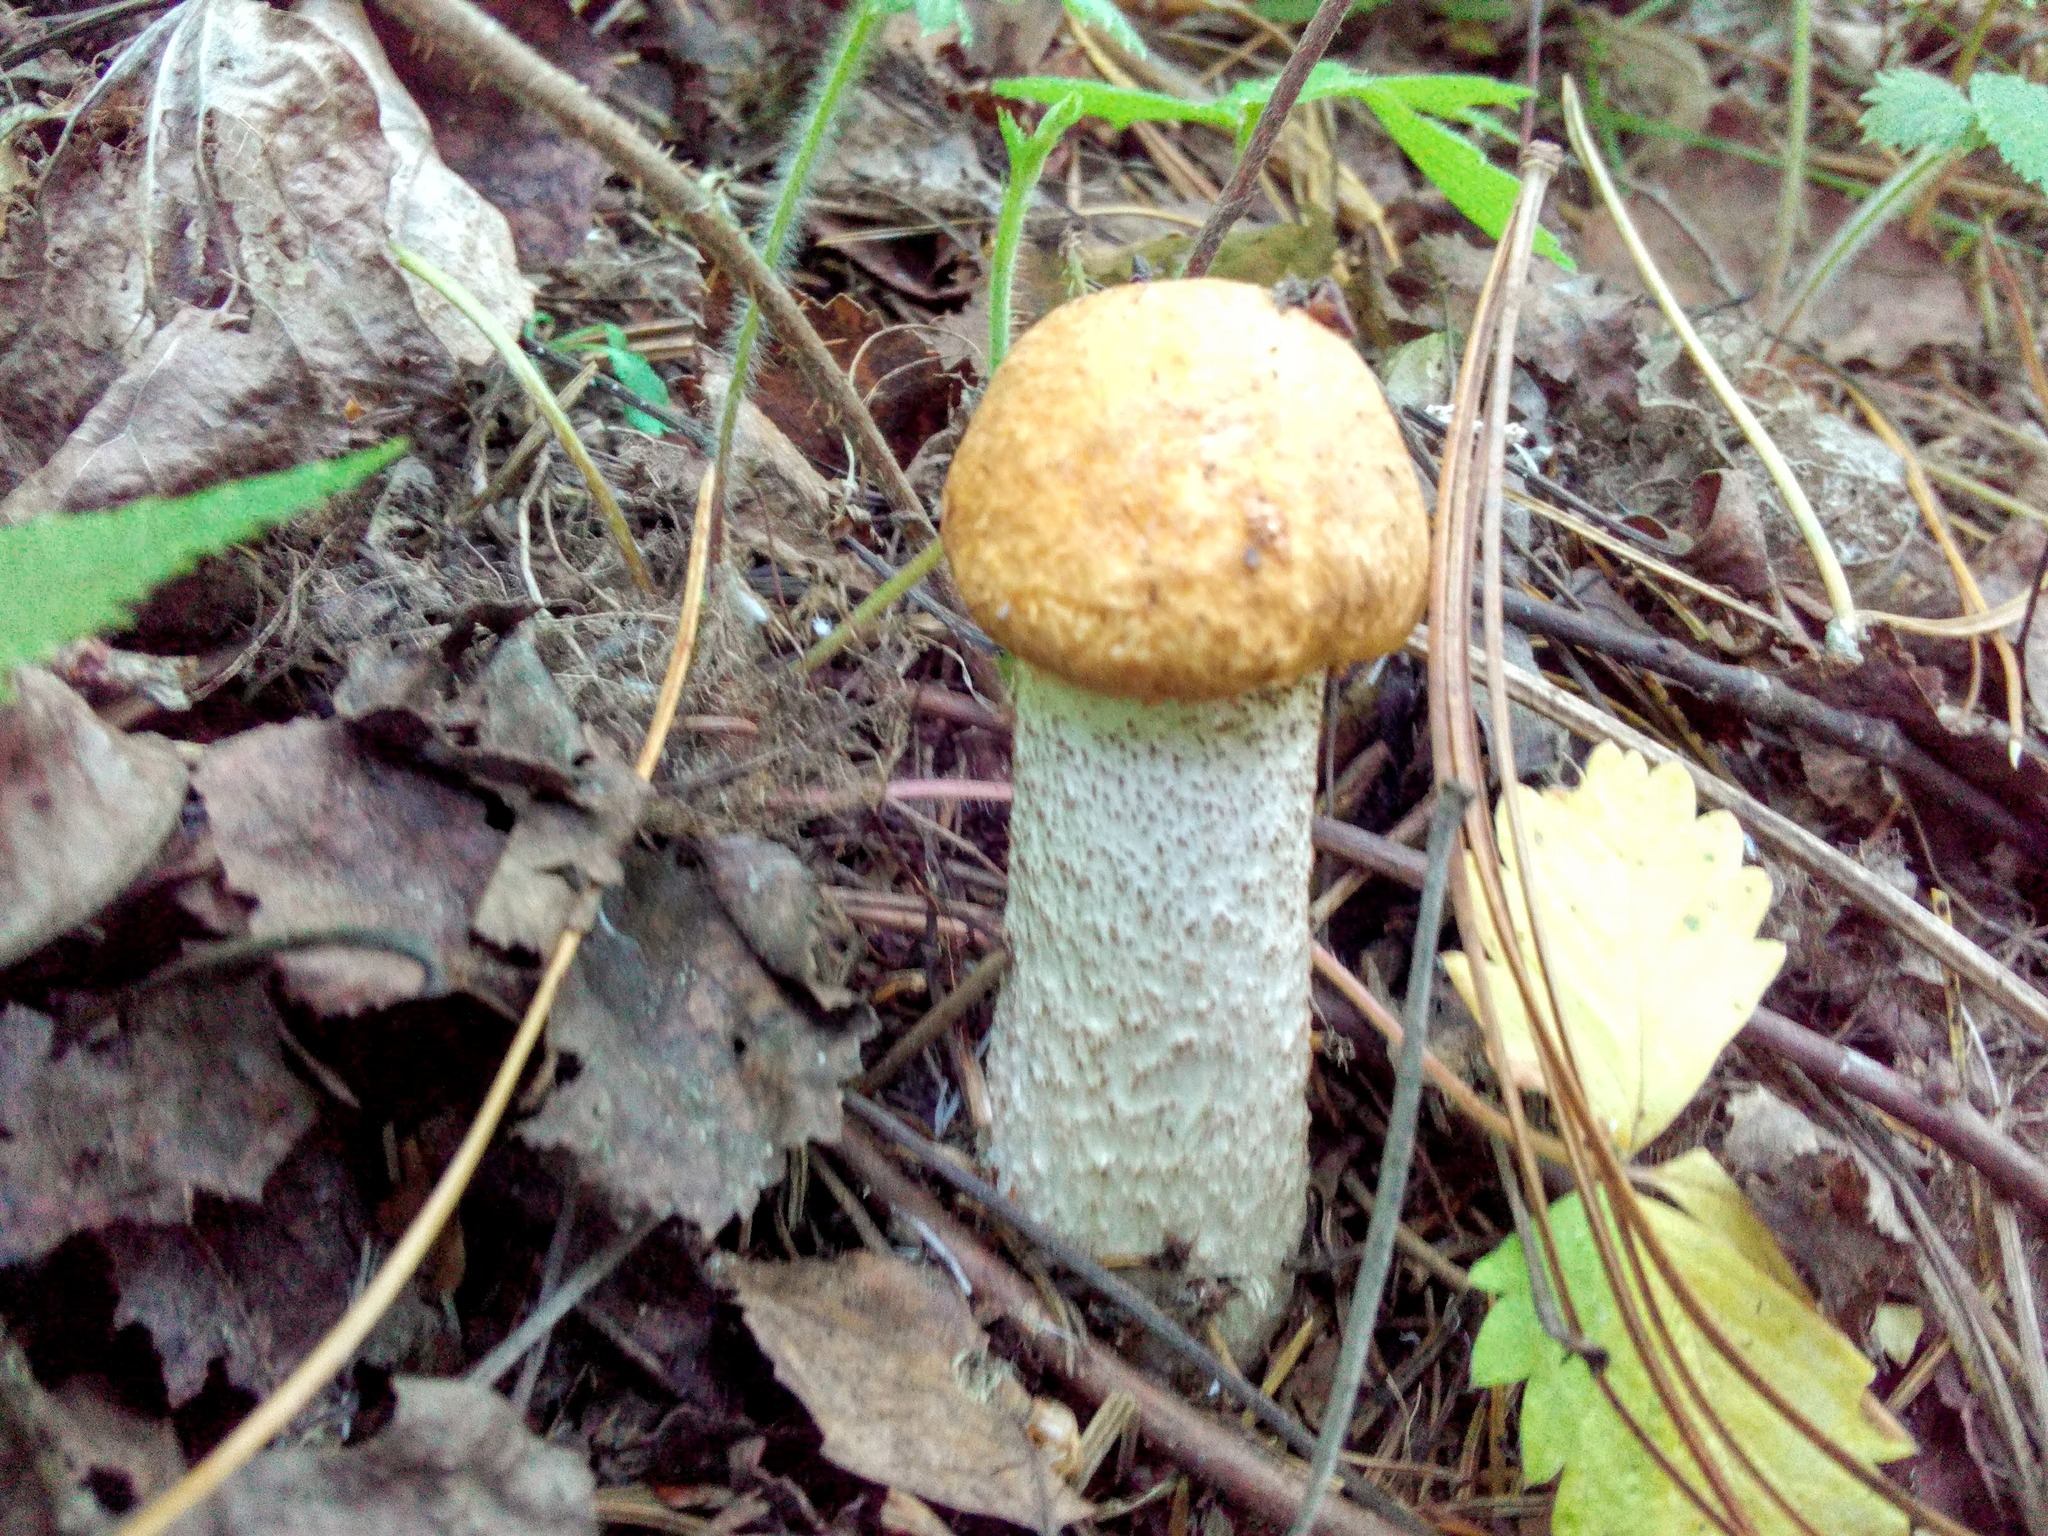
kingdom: Fungi
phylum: Basidiomycota
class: Agaricomycetes
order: Boletales
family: Boletaceae
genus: Leccinum
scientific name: Leccinum albostipitatum
